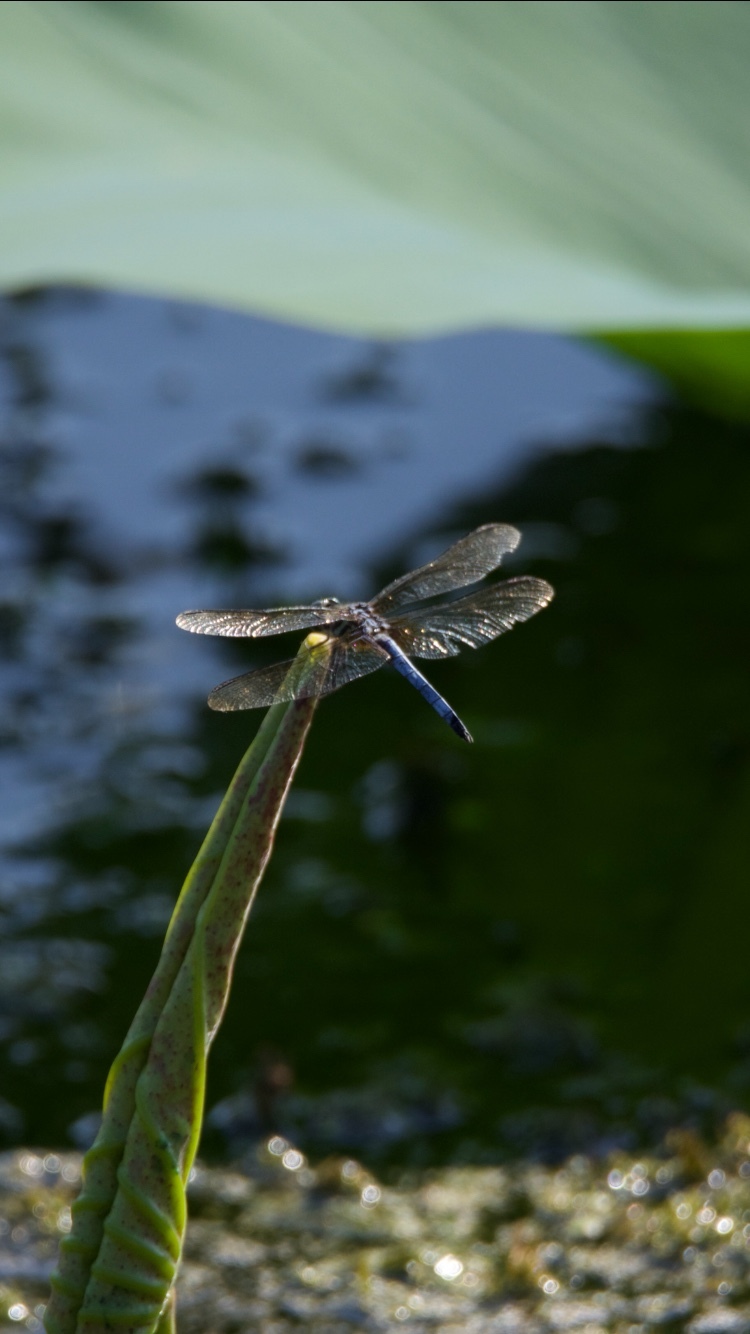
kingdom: Animalia
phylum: Arthropoda
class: Insecta
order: Odonata
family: Libellulidae
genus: Pachydiplax
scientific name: Pachydiplax longipennis
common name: Blue dasher
